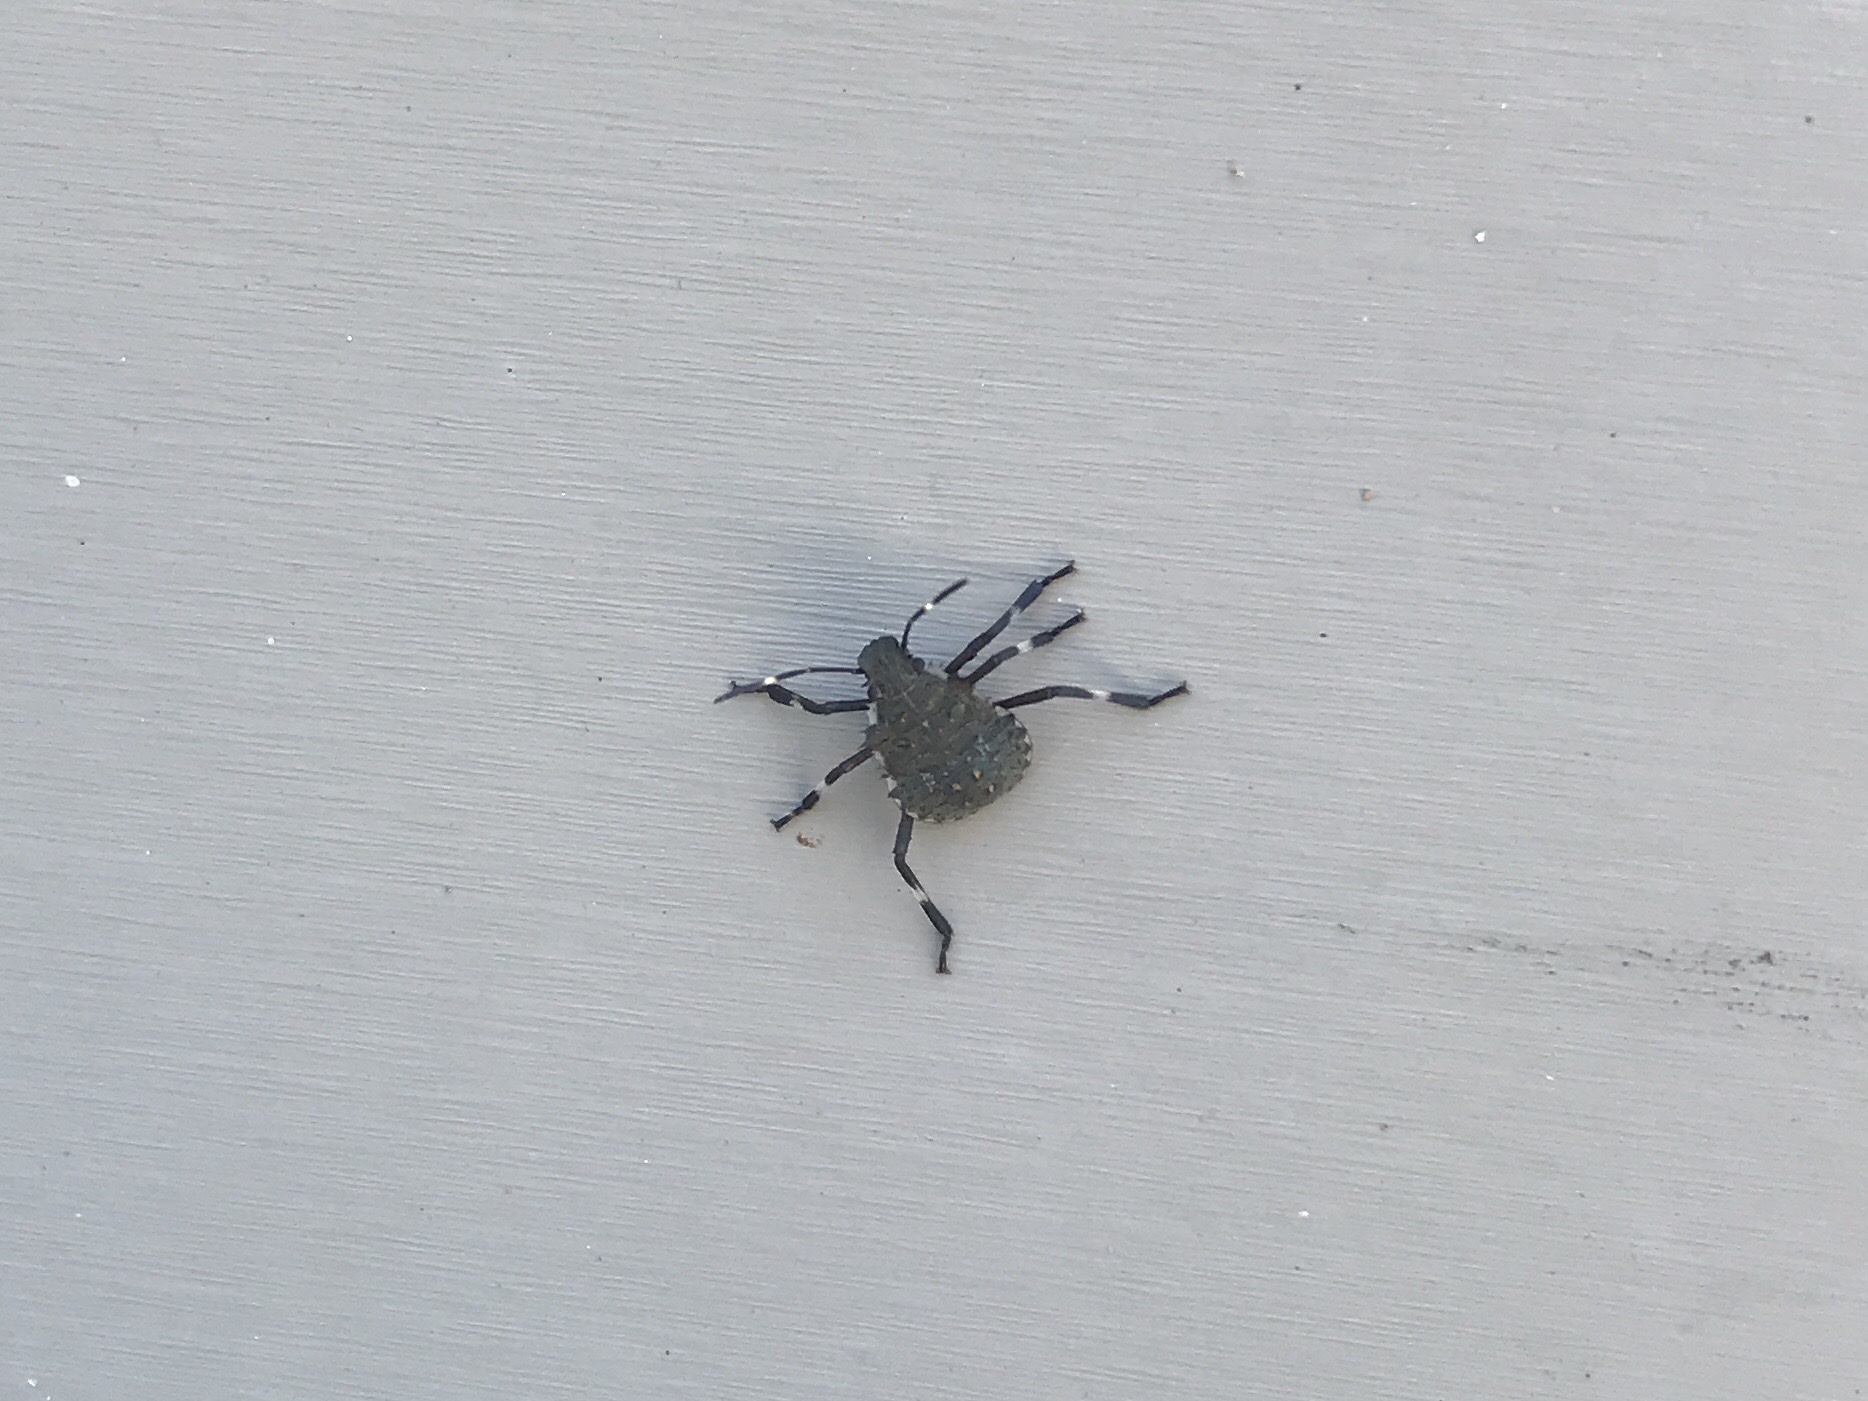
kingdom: Animalia
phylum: Arthropoda
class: Insecta
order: Hemiptera
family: Pentatomidae
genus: Halyomorpha
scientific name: Halyomorpha halys
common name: Brown marmorated stink bug
